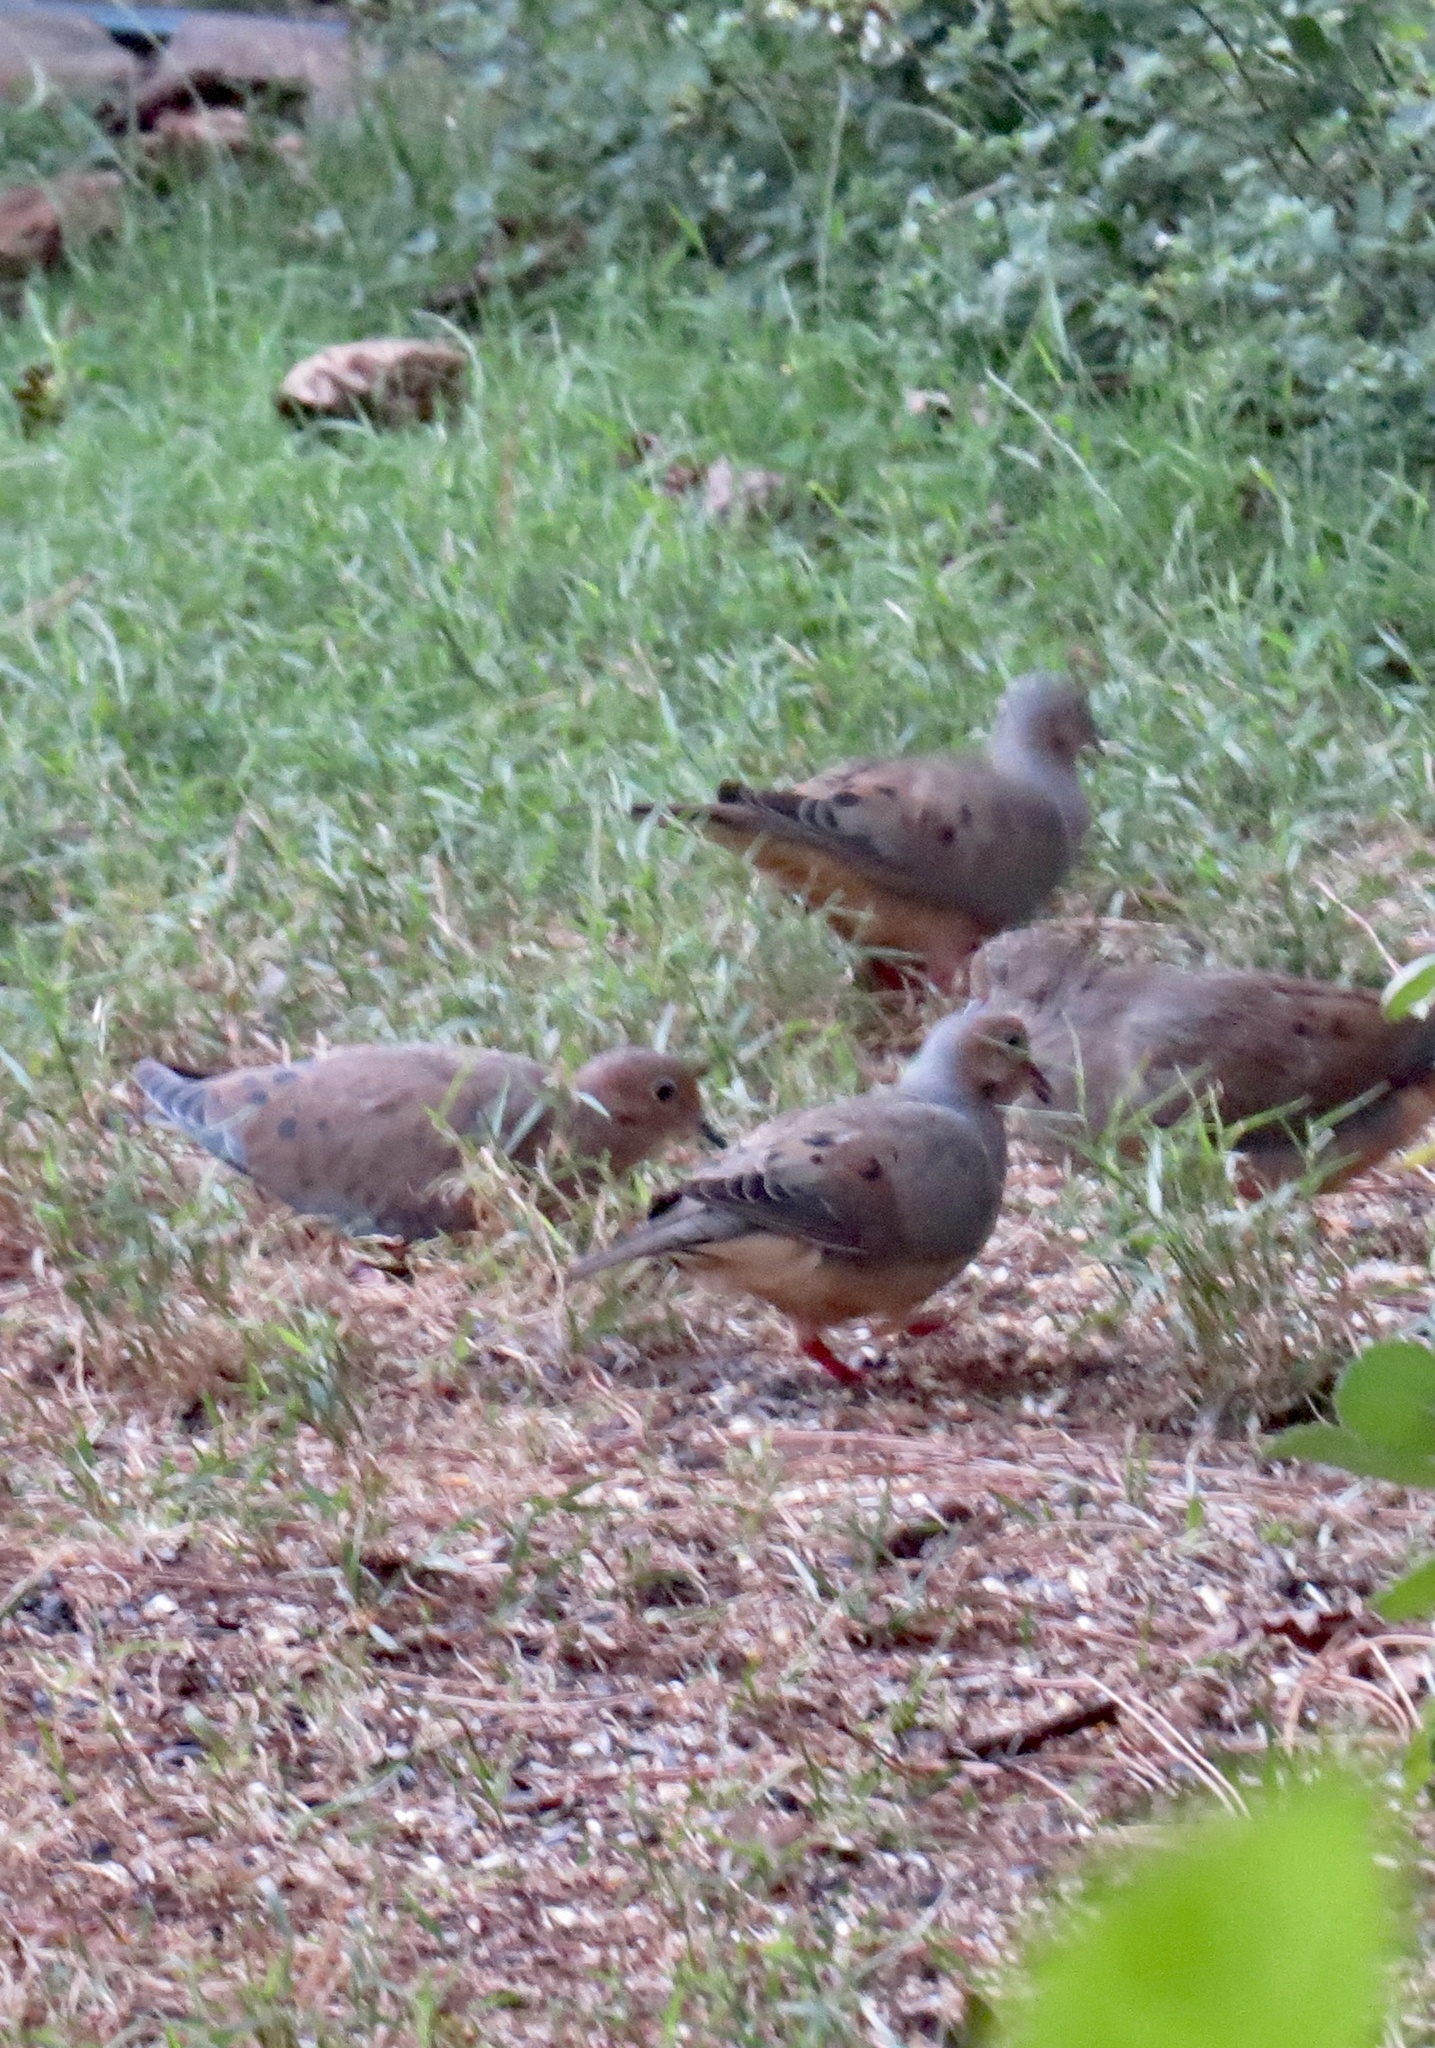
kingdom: Animalia
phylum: Chordata
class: Aves
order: Columbiformes
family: Columbidae
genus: Zenaida
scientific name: Zenaida macroura
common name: Mourning dove
